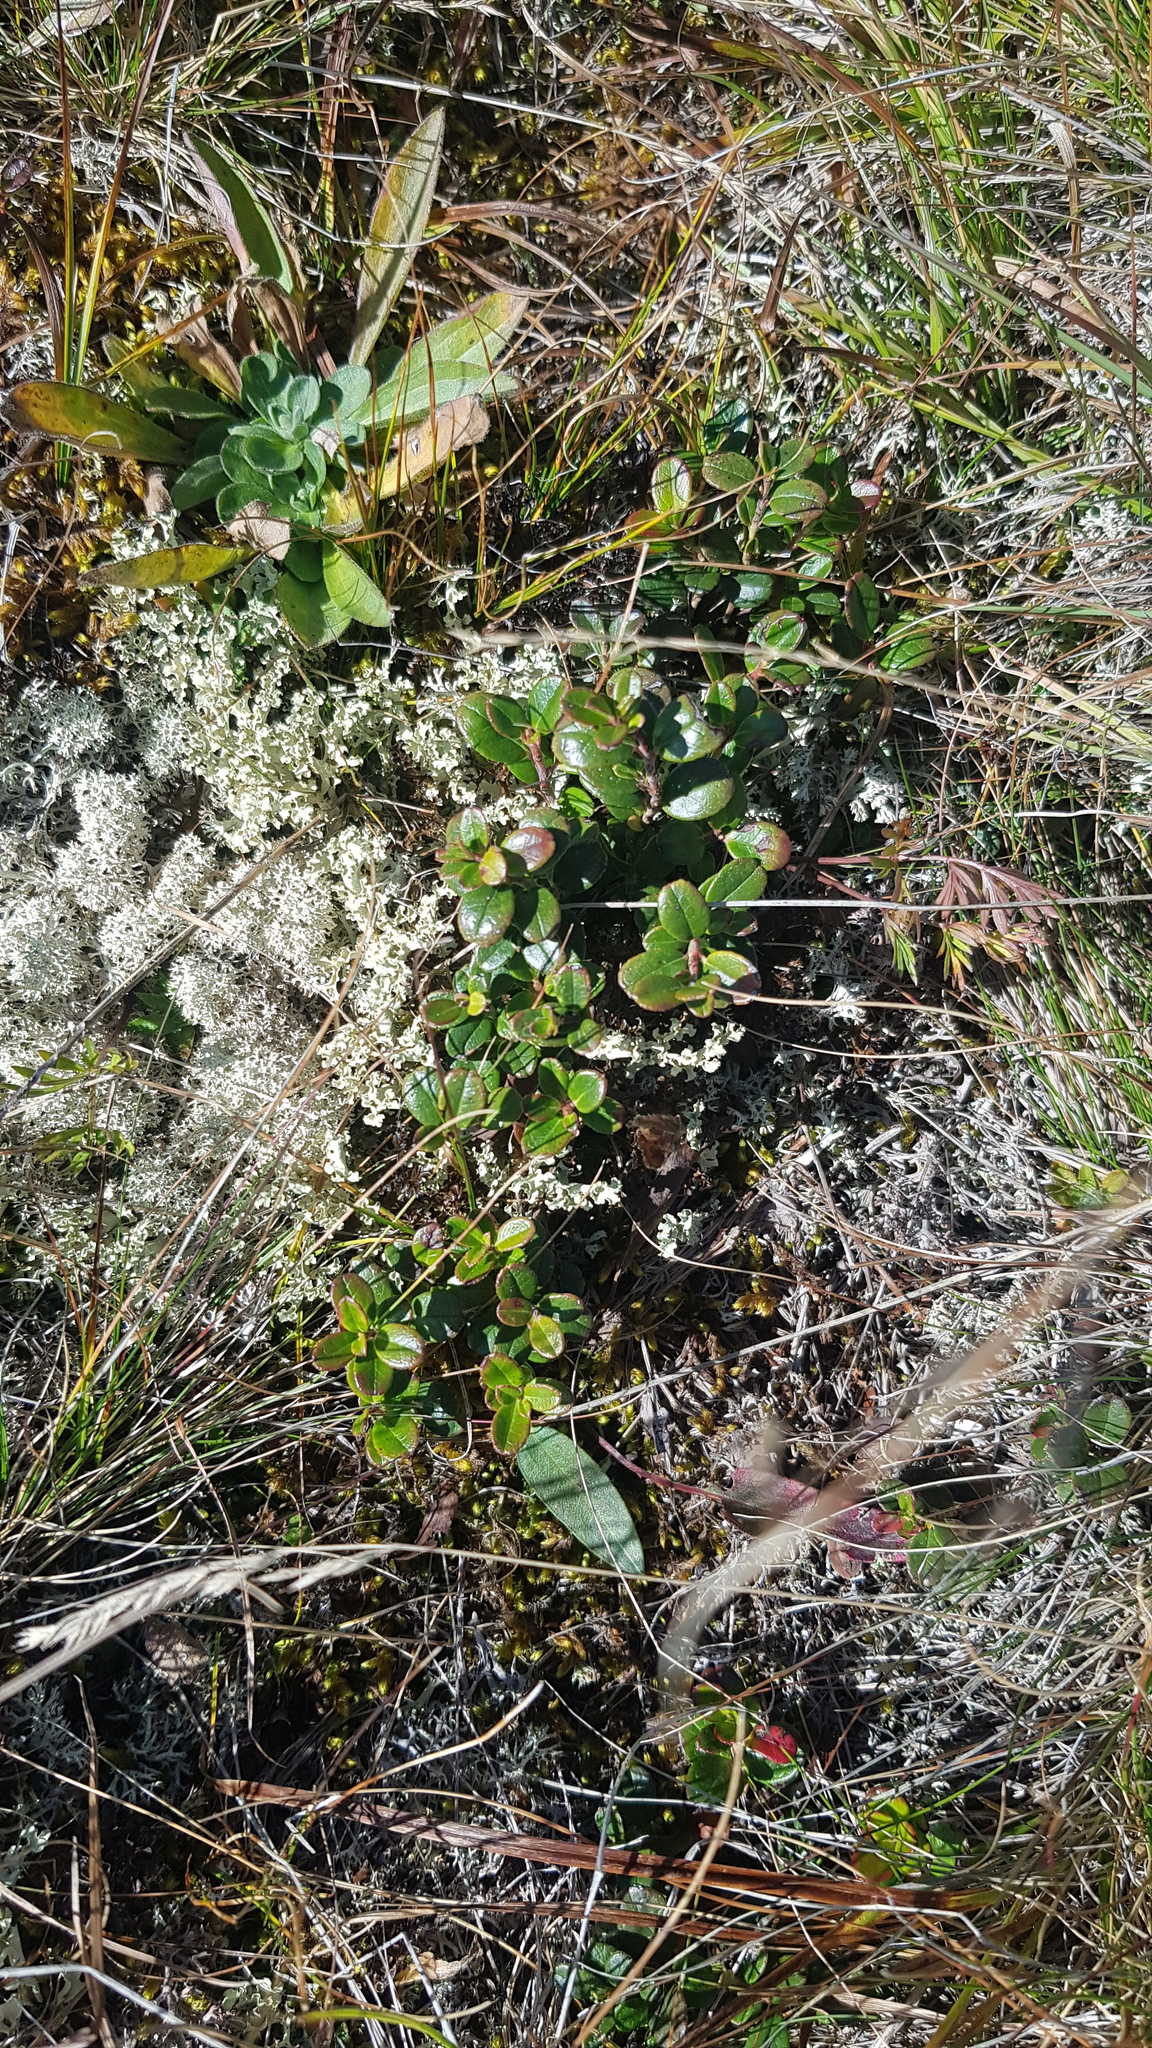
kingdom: Plantae
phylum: Tracheophyta
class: Magnoliopsida
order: Ericales
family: Ericaceae
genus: Vaccinium
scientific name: Vaccinium vitis-idaea
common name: Cowberry
